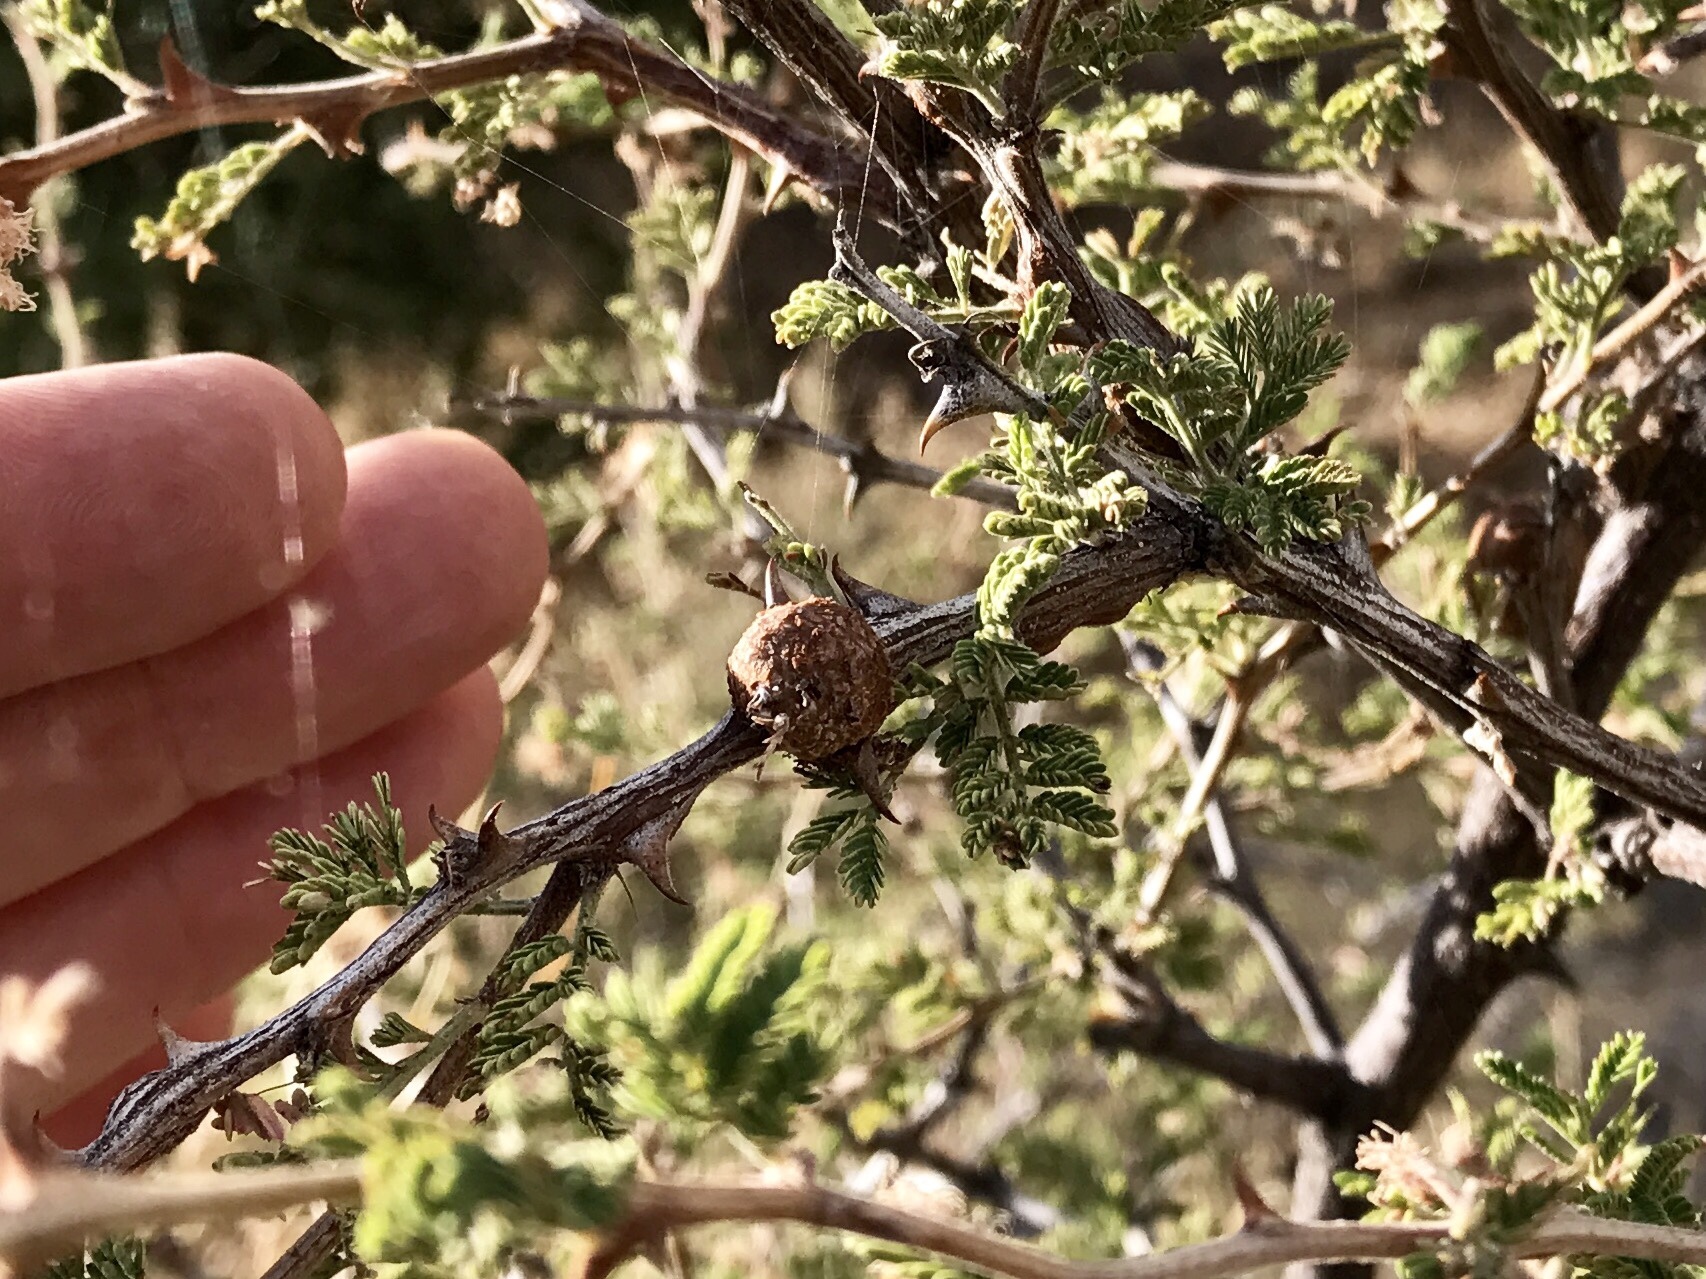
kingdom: Plantae
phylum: Tracheophyta
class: Magnoliopsida
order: Fabales
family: Fabaceae
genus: Mimosa
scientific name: Mimosa aculeaticarpa
